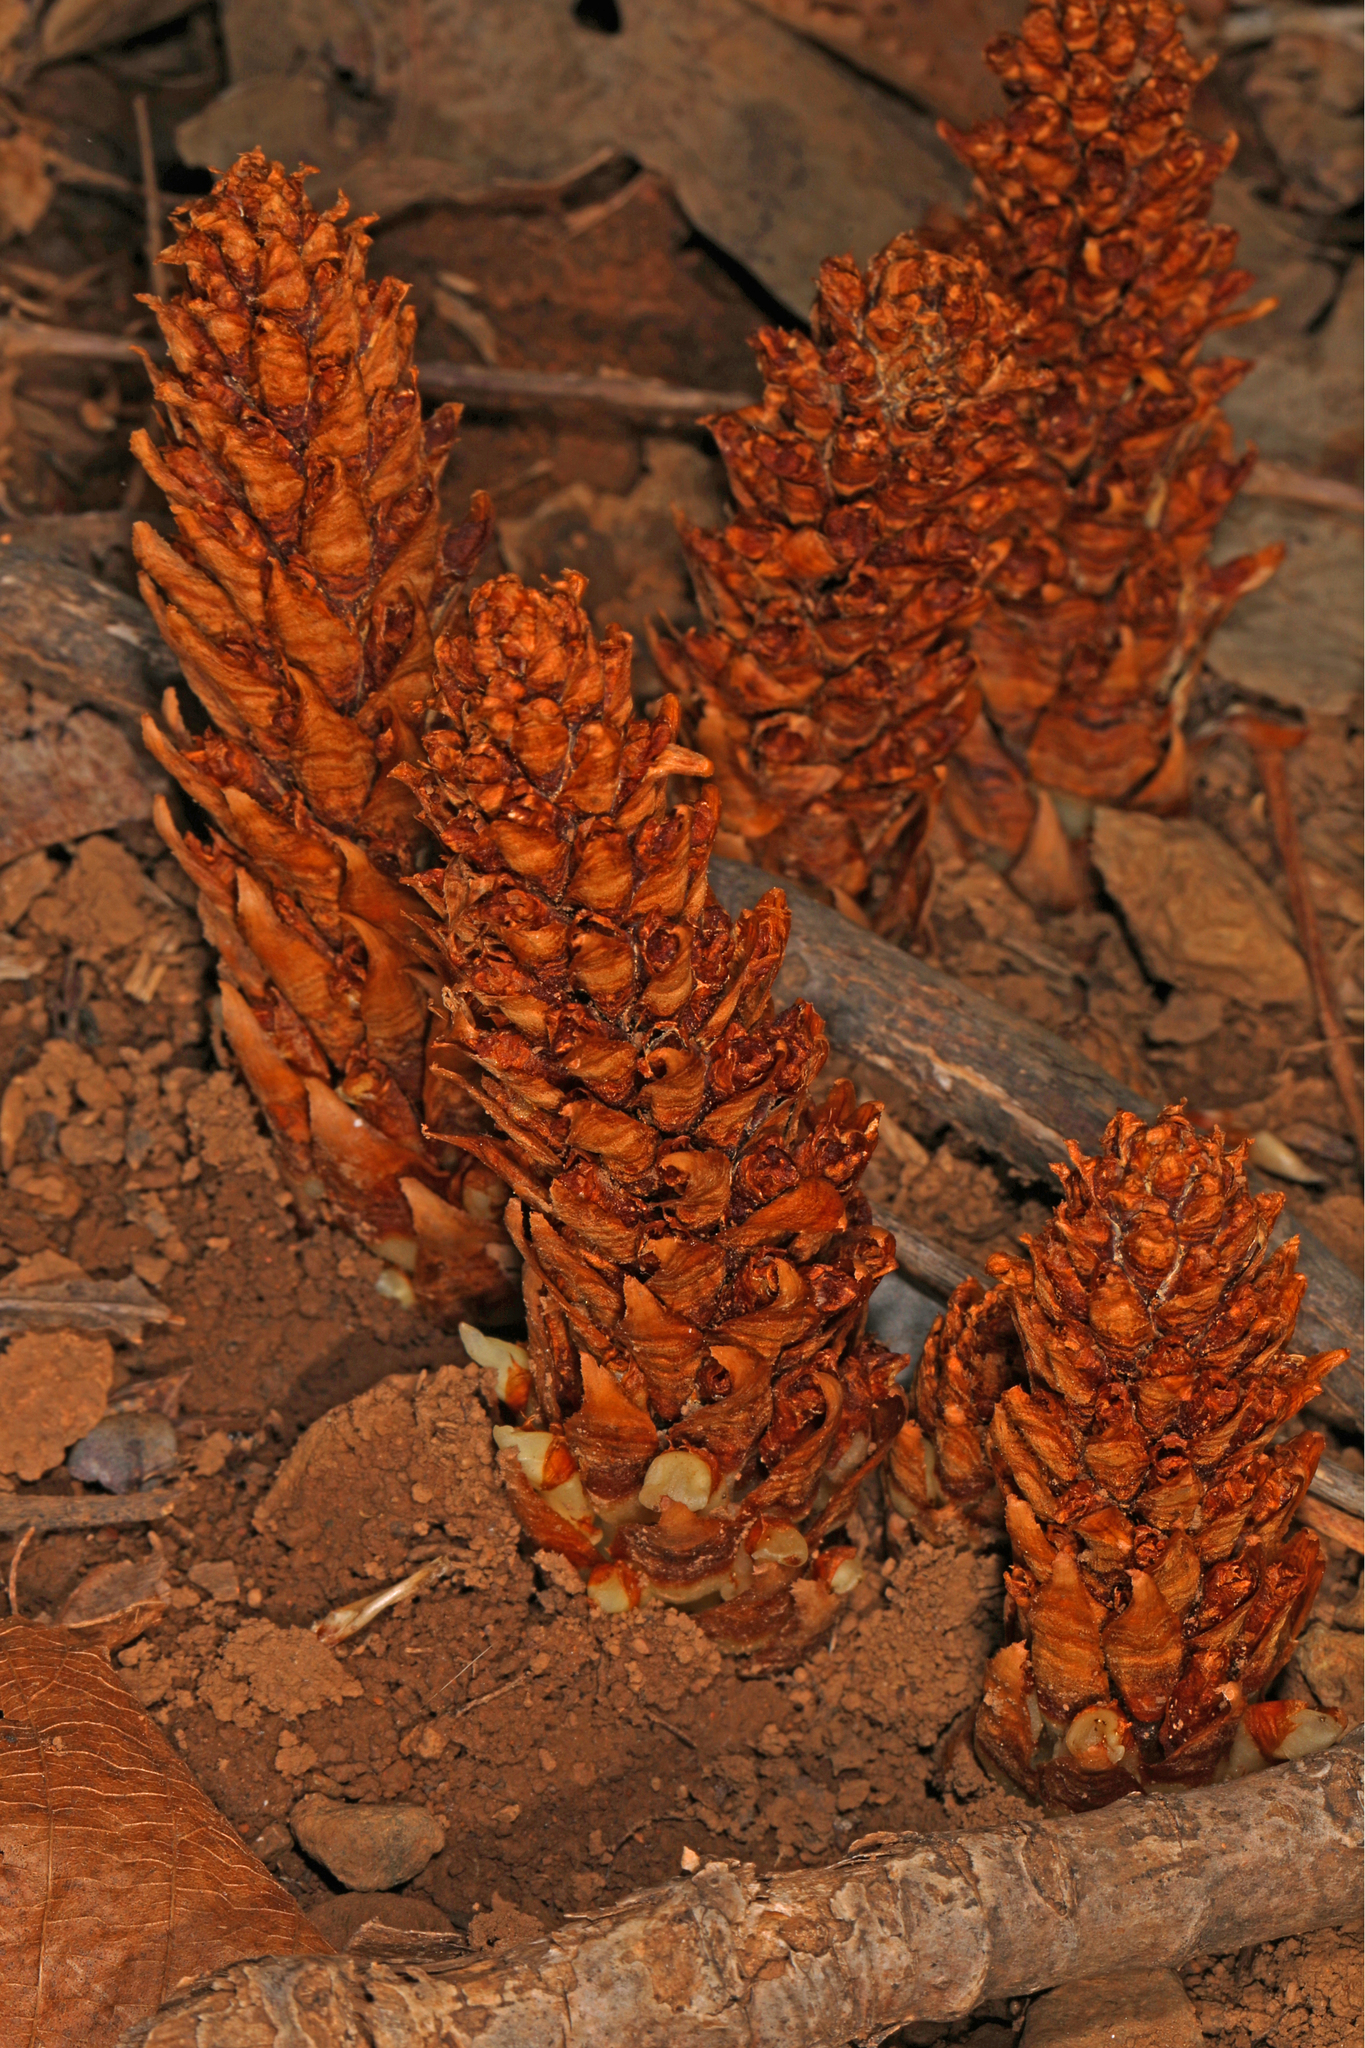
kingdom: Plantae
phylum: Tracheophyta
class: Magnoliopsida
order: Lamiales
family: Orobanchaceae
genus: Conopholis
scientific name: Conopholis americana
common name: American cancer-root
